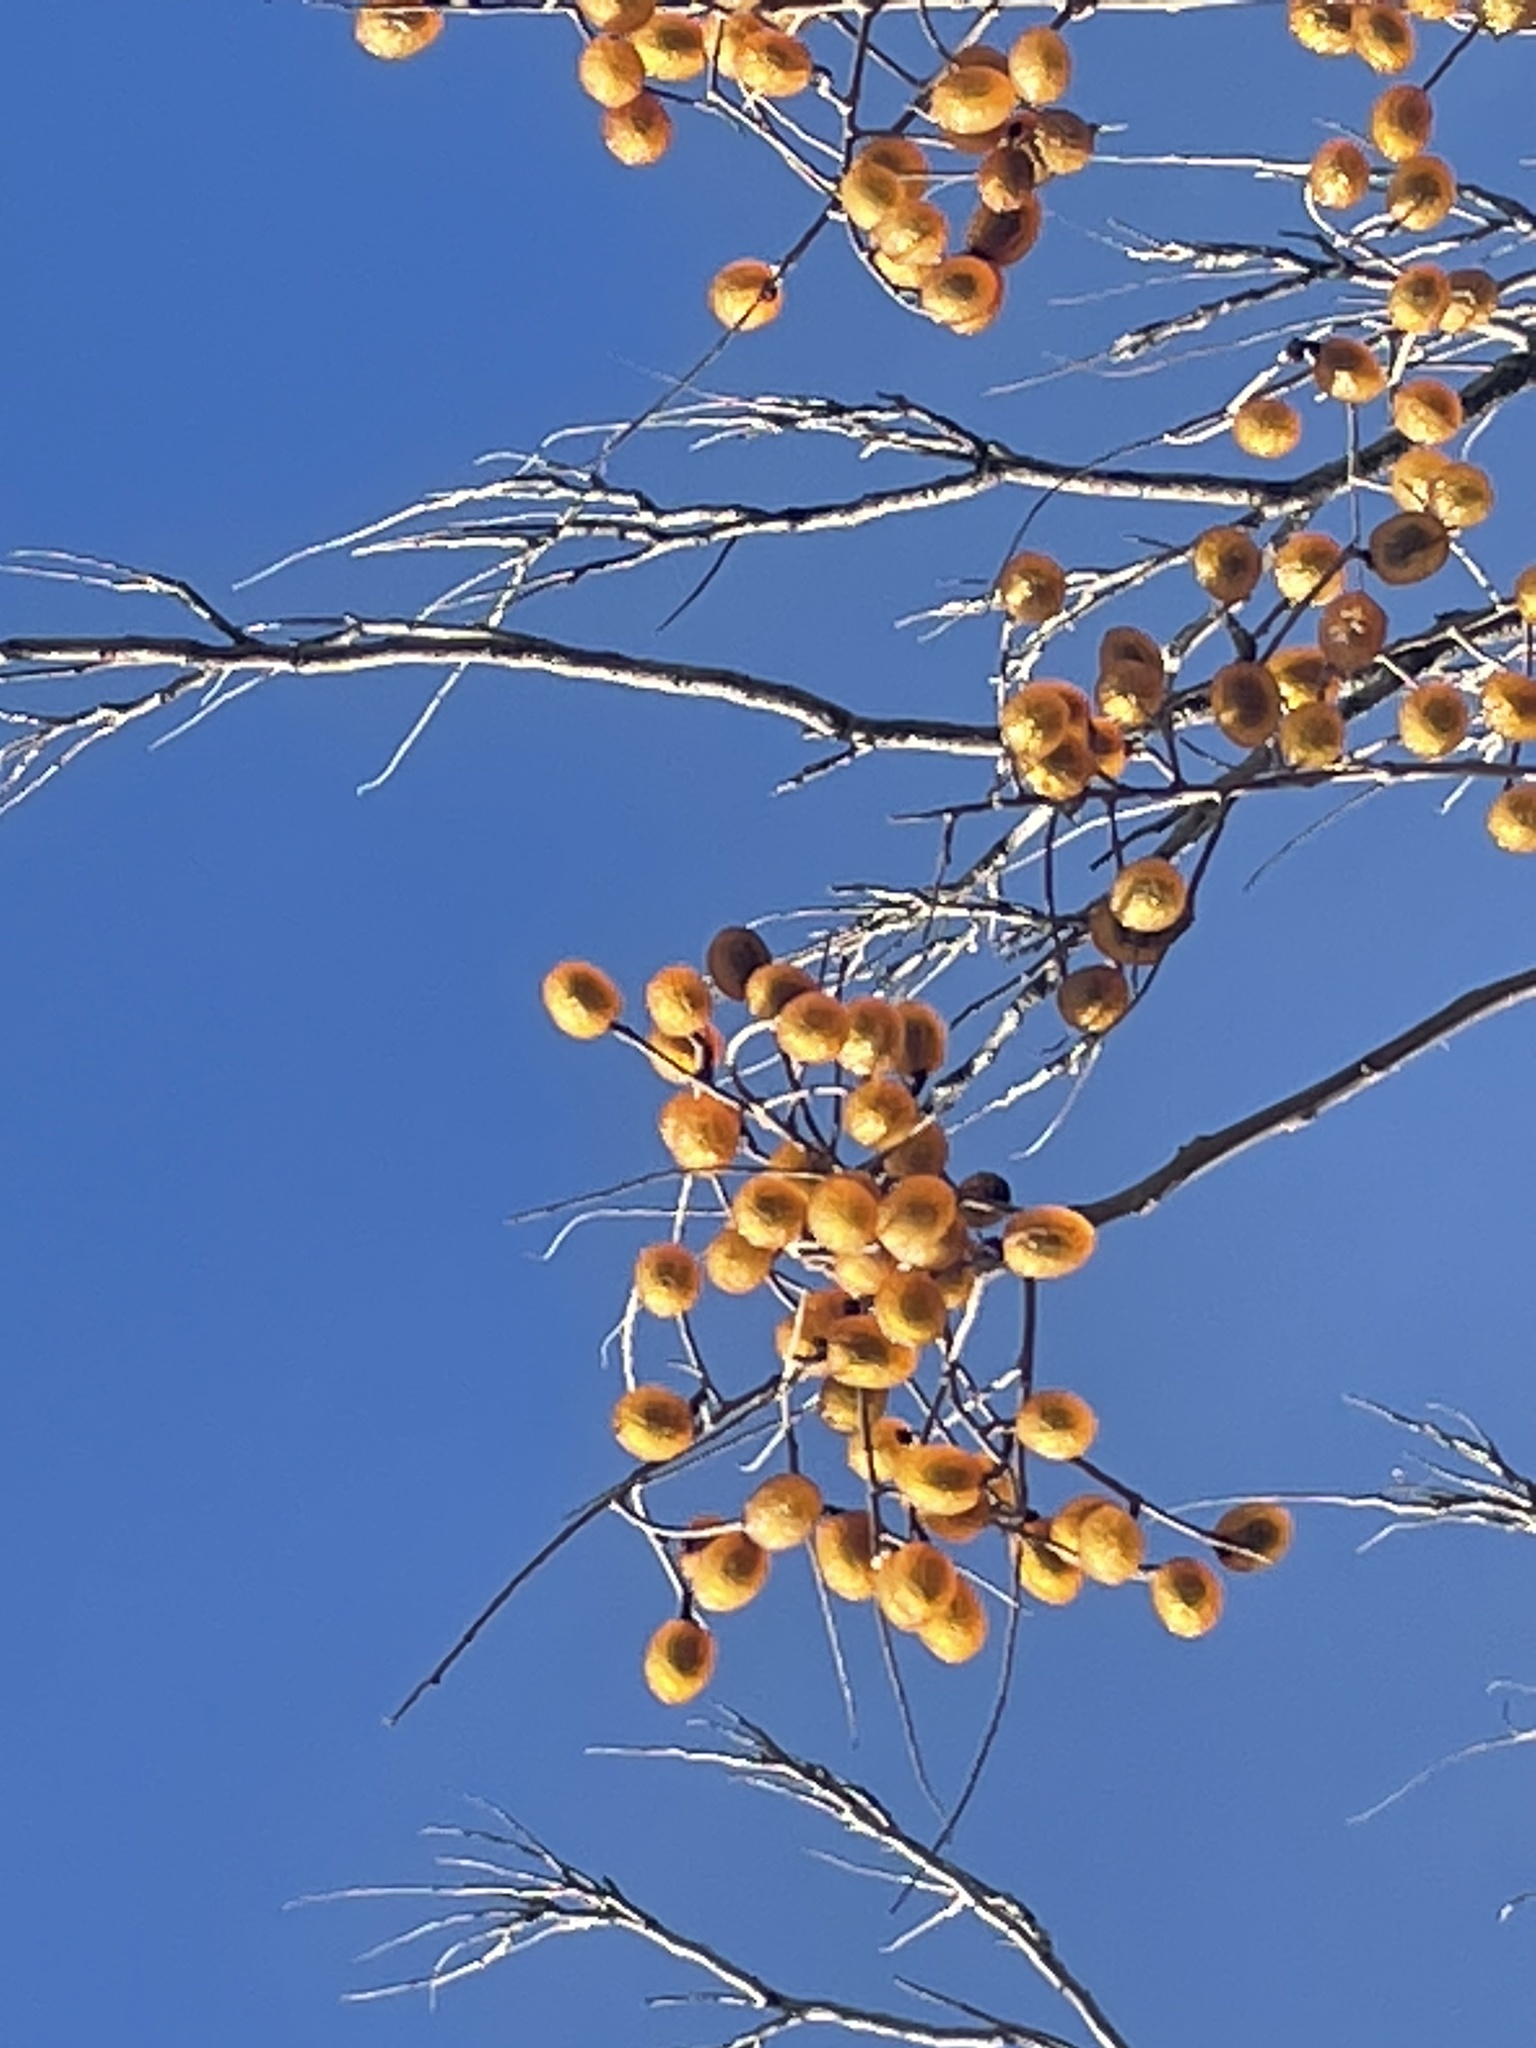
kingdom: Plantae
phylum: Tracheophyta
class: Magnoliopsida
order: Sapindales
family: Sapindaceae
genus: Sapindus
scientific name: Sapindus drummondii
